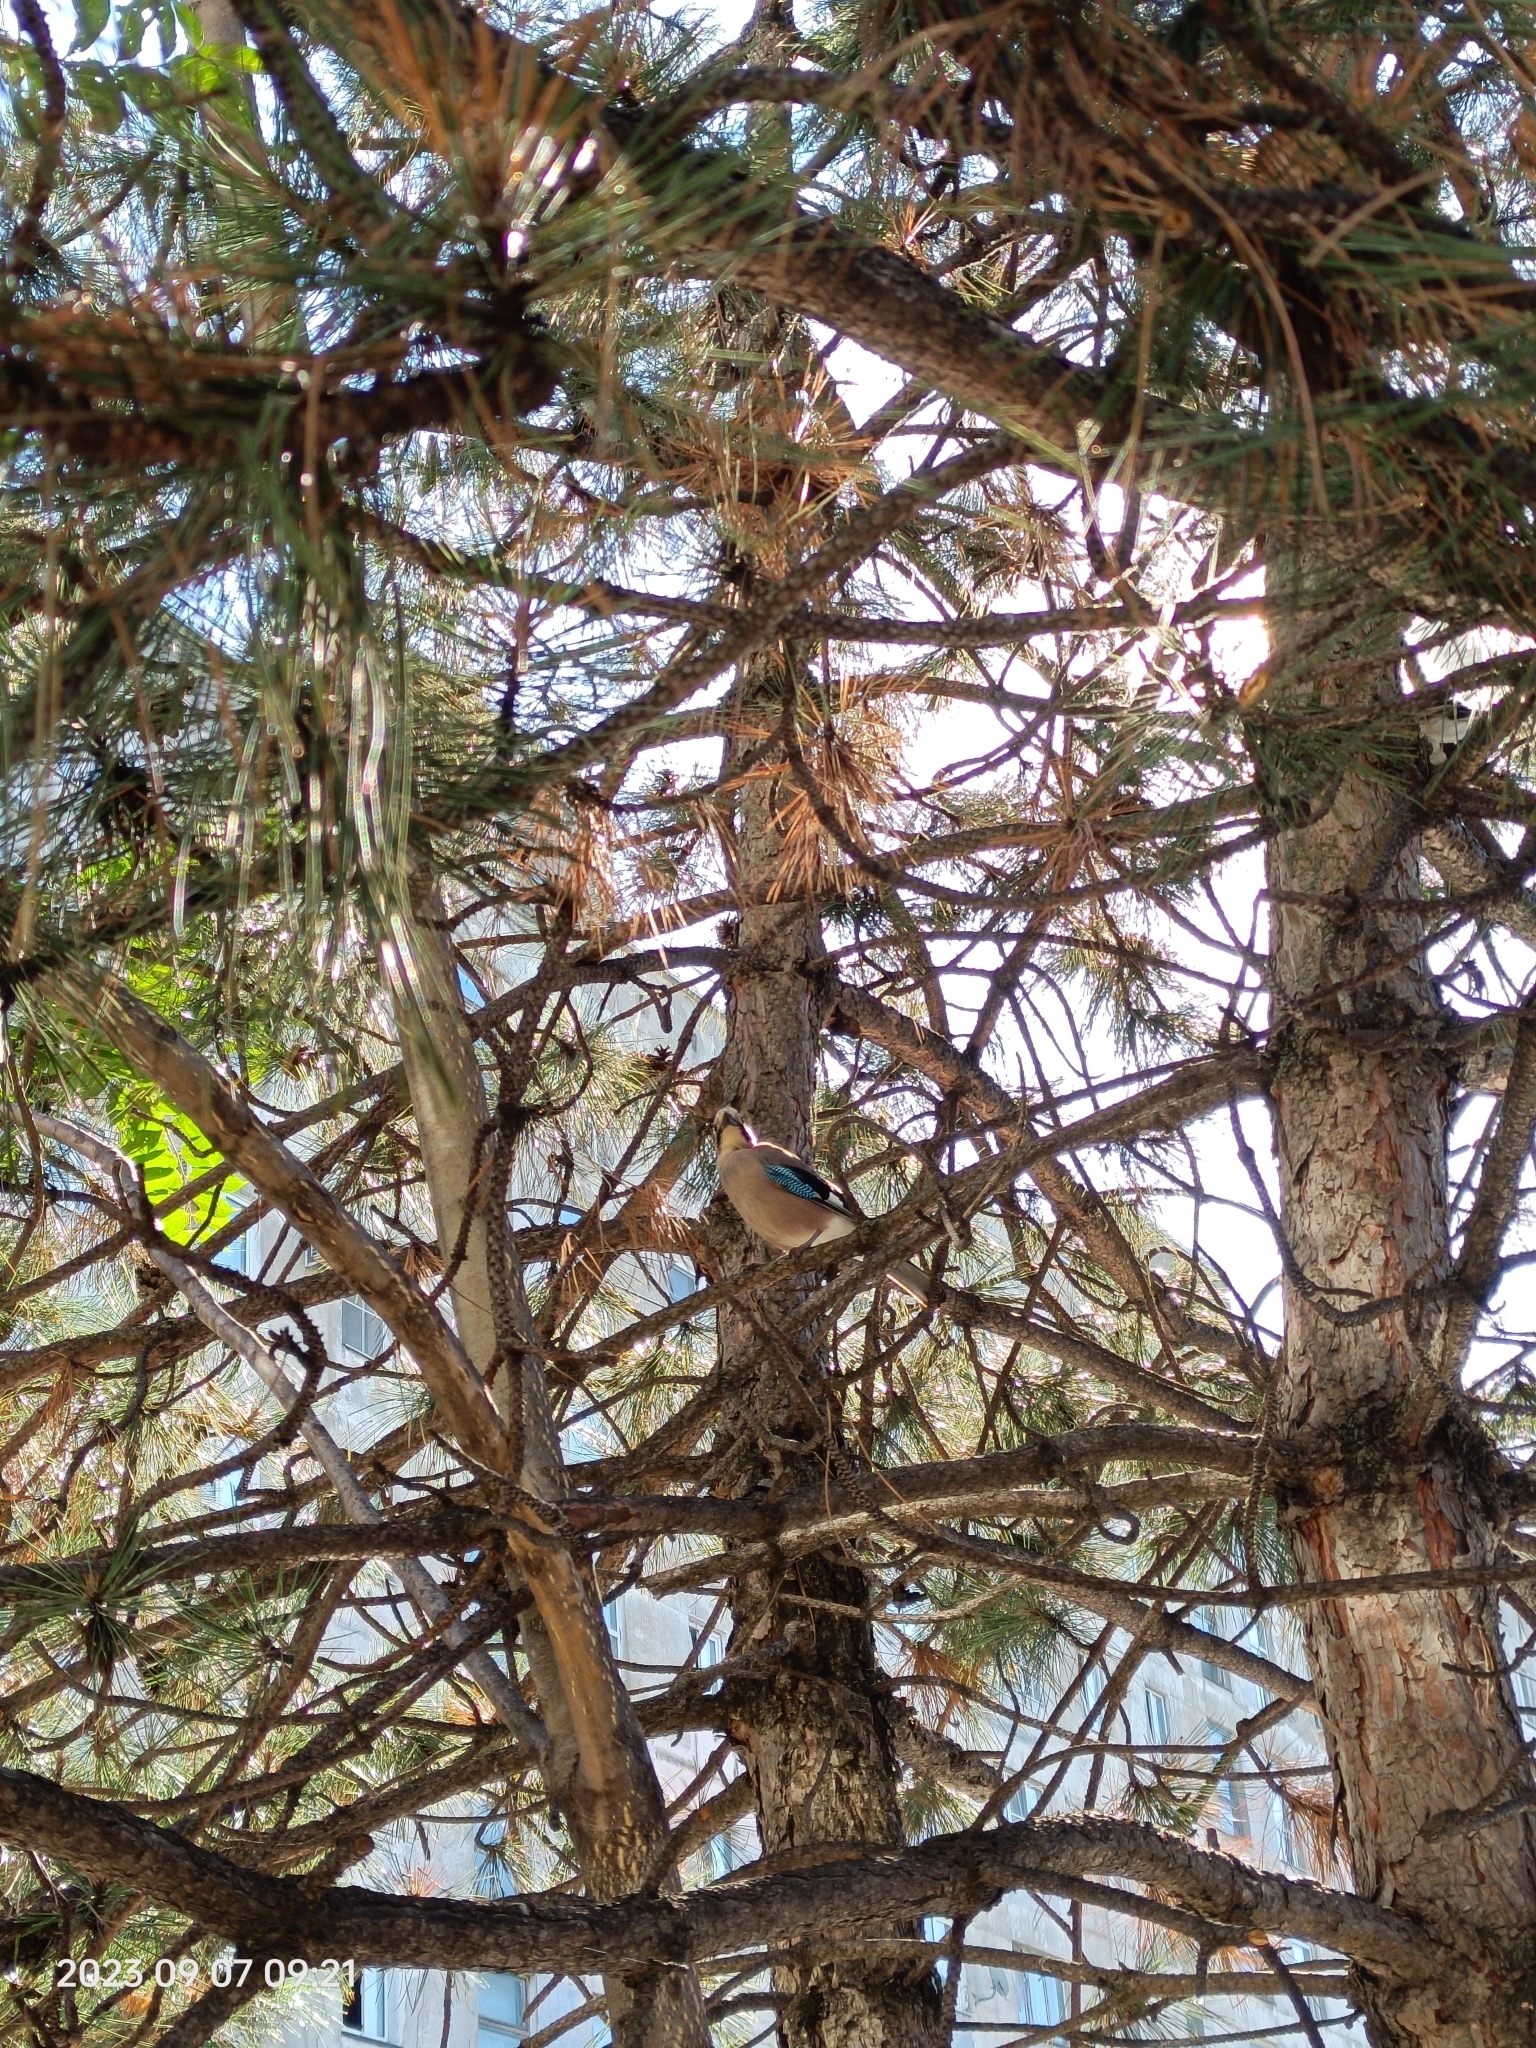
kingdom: Animalia
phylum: Chordata
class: Aves
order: Passeriformes
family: Corvidae
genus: Garrulus
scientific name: Garrulus glandarius
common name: Eurasian jay
